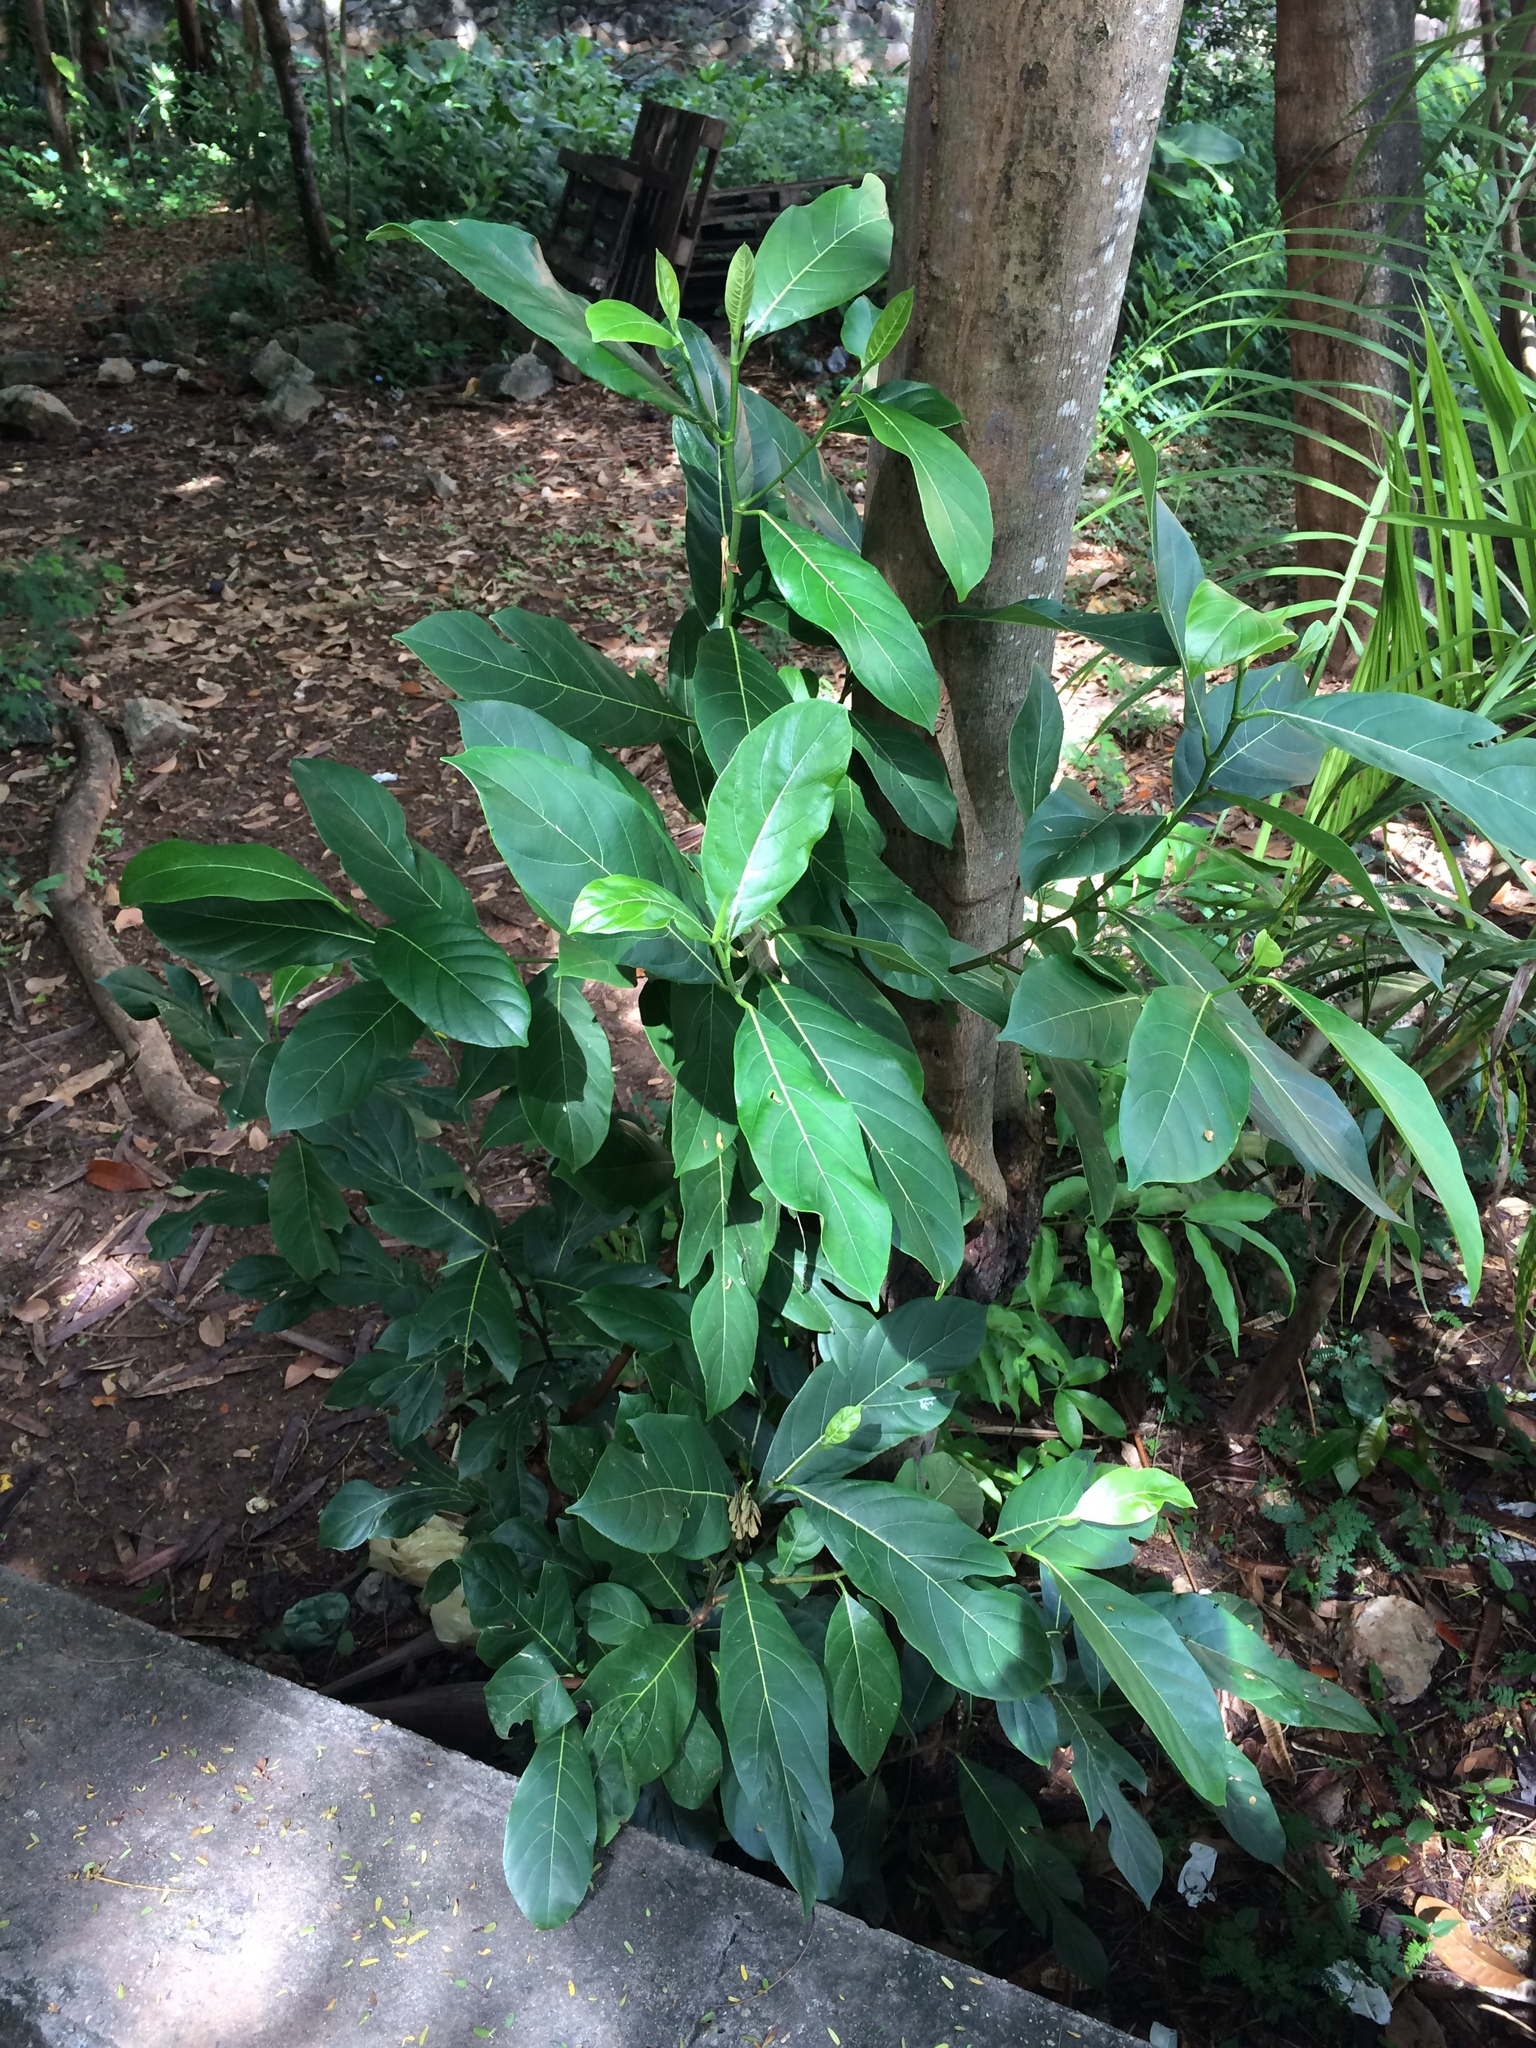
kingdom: Plantae
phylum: Tracheophyta
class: Magnoliopsida
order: Rosales
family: Moraceae
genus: Artocarpus
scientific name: Artocarpus heterophyllus
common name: Jackfruit
